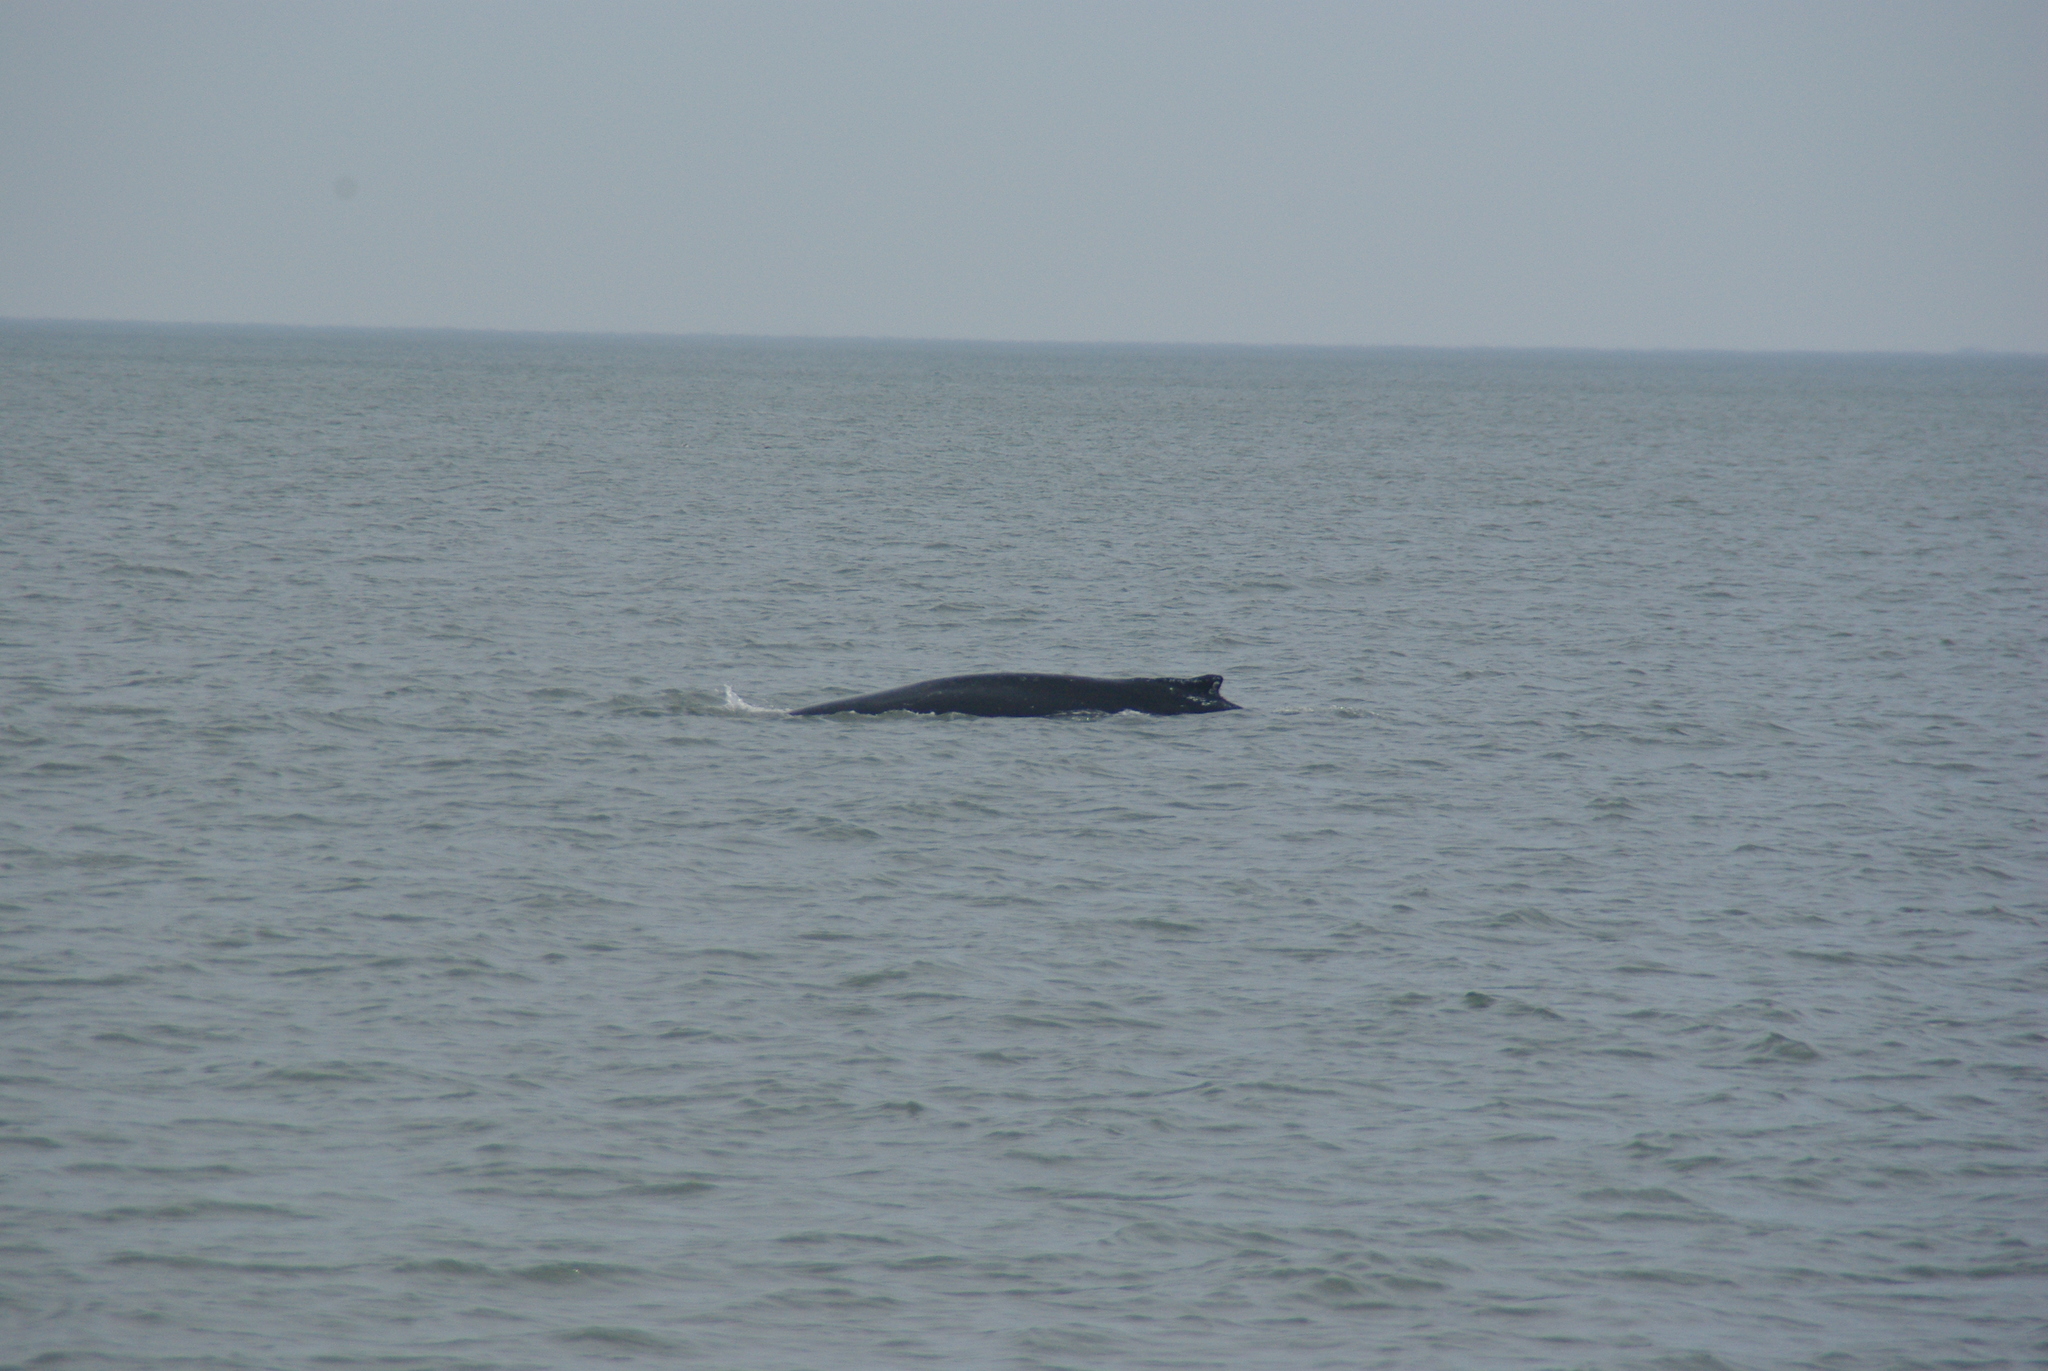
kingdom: Animalia
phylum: Chordata
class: Mammalia
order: Cetacea
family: Balaenopteridae
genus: Megaptera
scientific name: Megaptera novaeangliae
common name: Humpback whale
